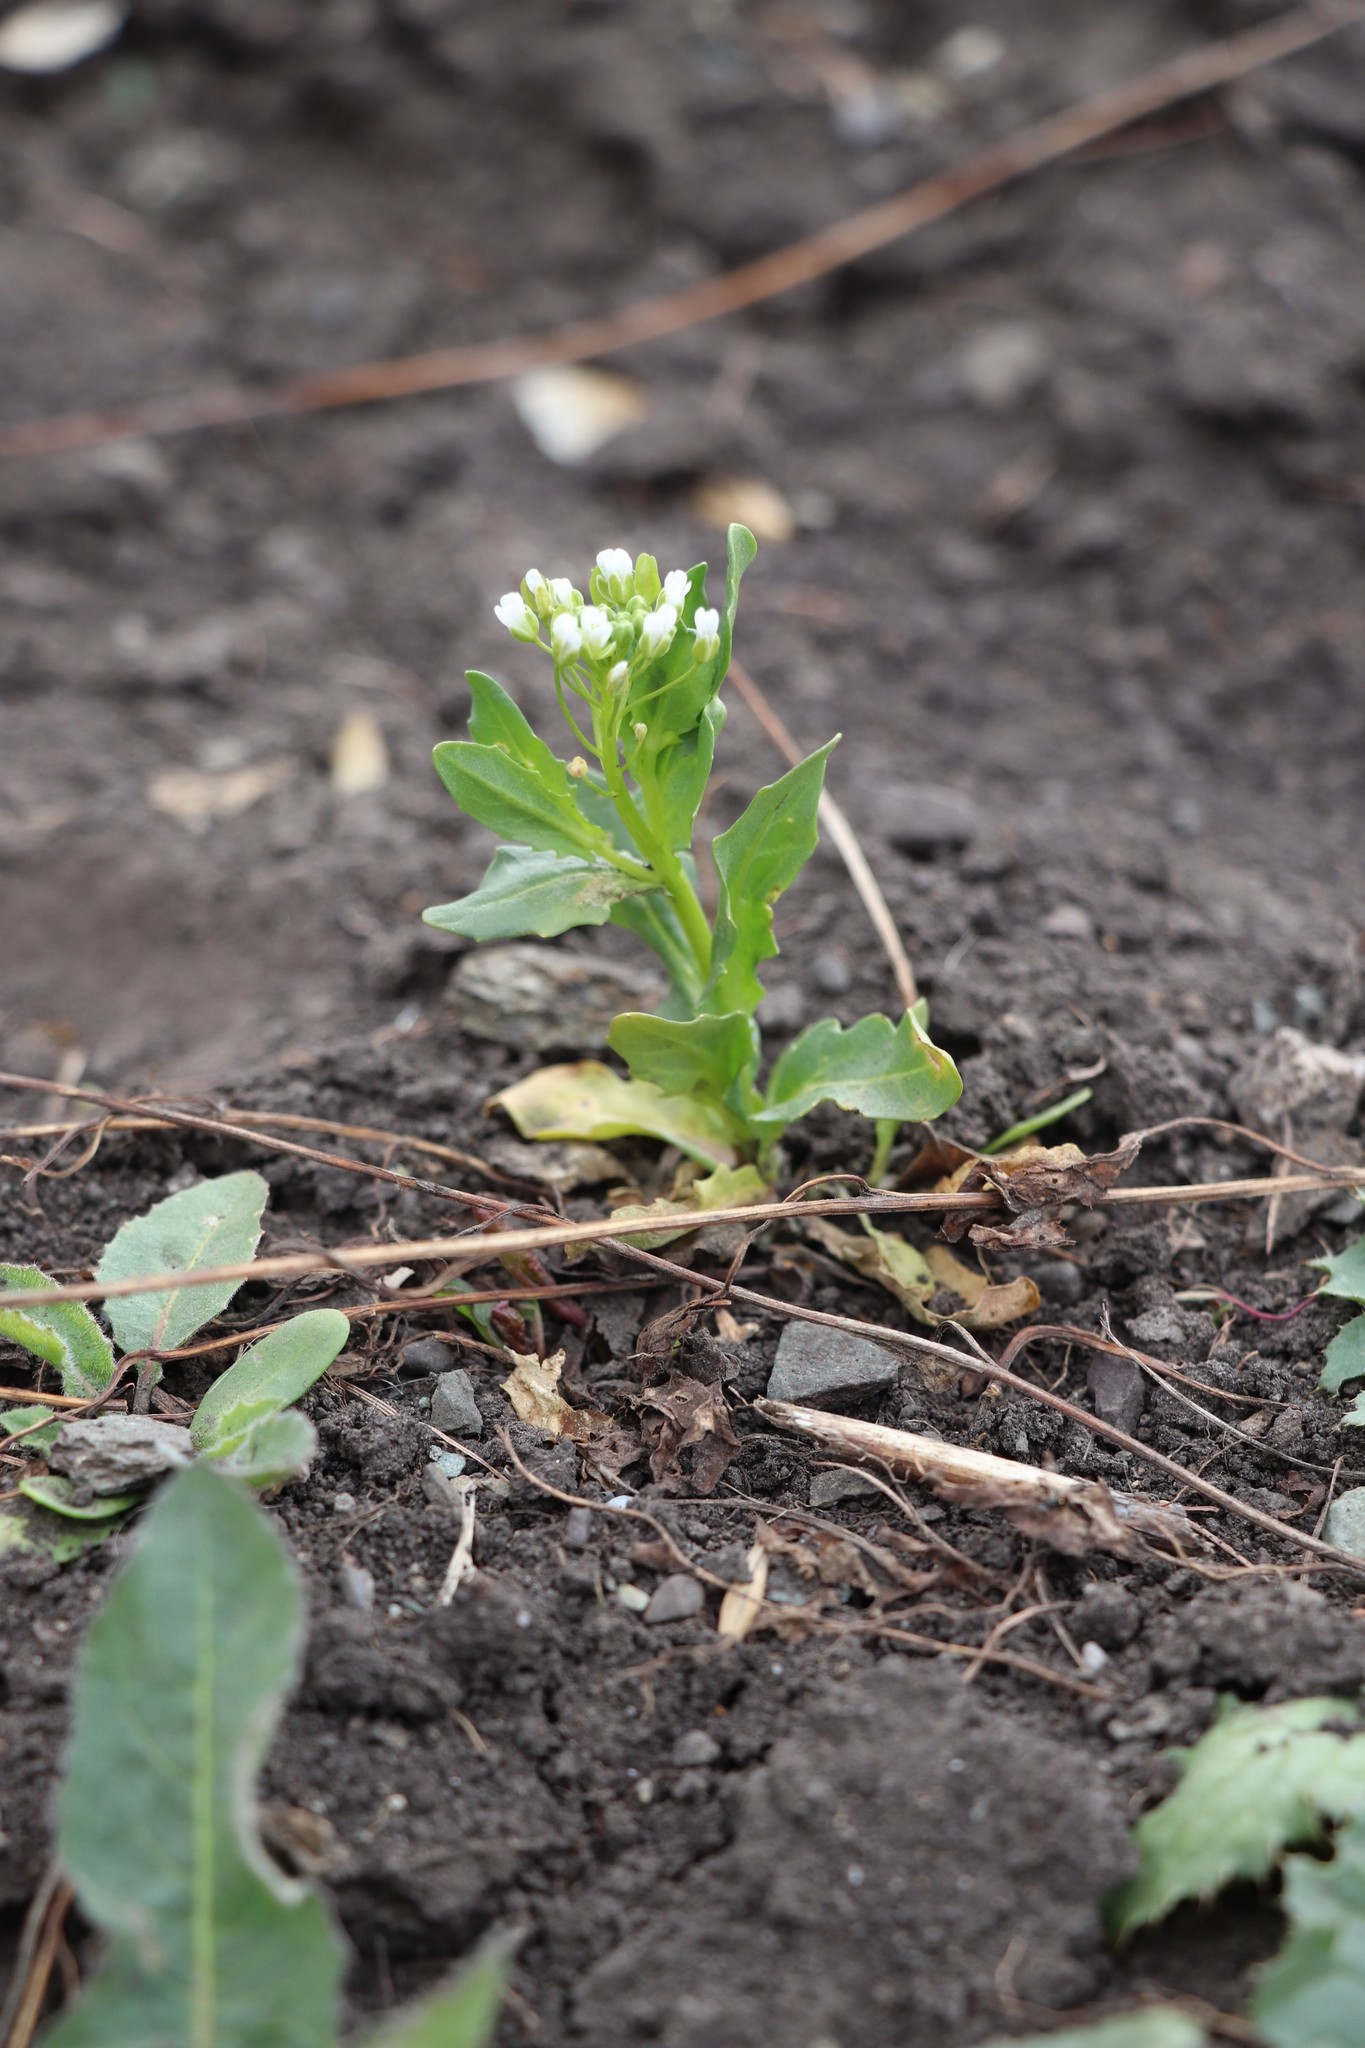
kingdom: Plantae
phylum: Tracheophyta
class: Magnoliopsida
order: Brassicales
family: Brassicaceae
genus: Thlaspi
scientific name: Thlaspi arvense
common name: Field pennycress
